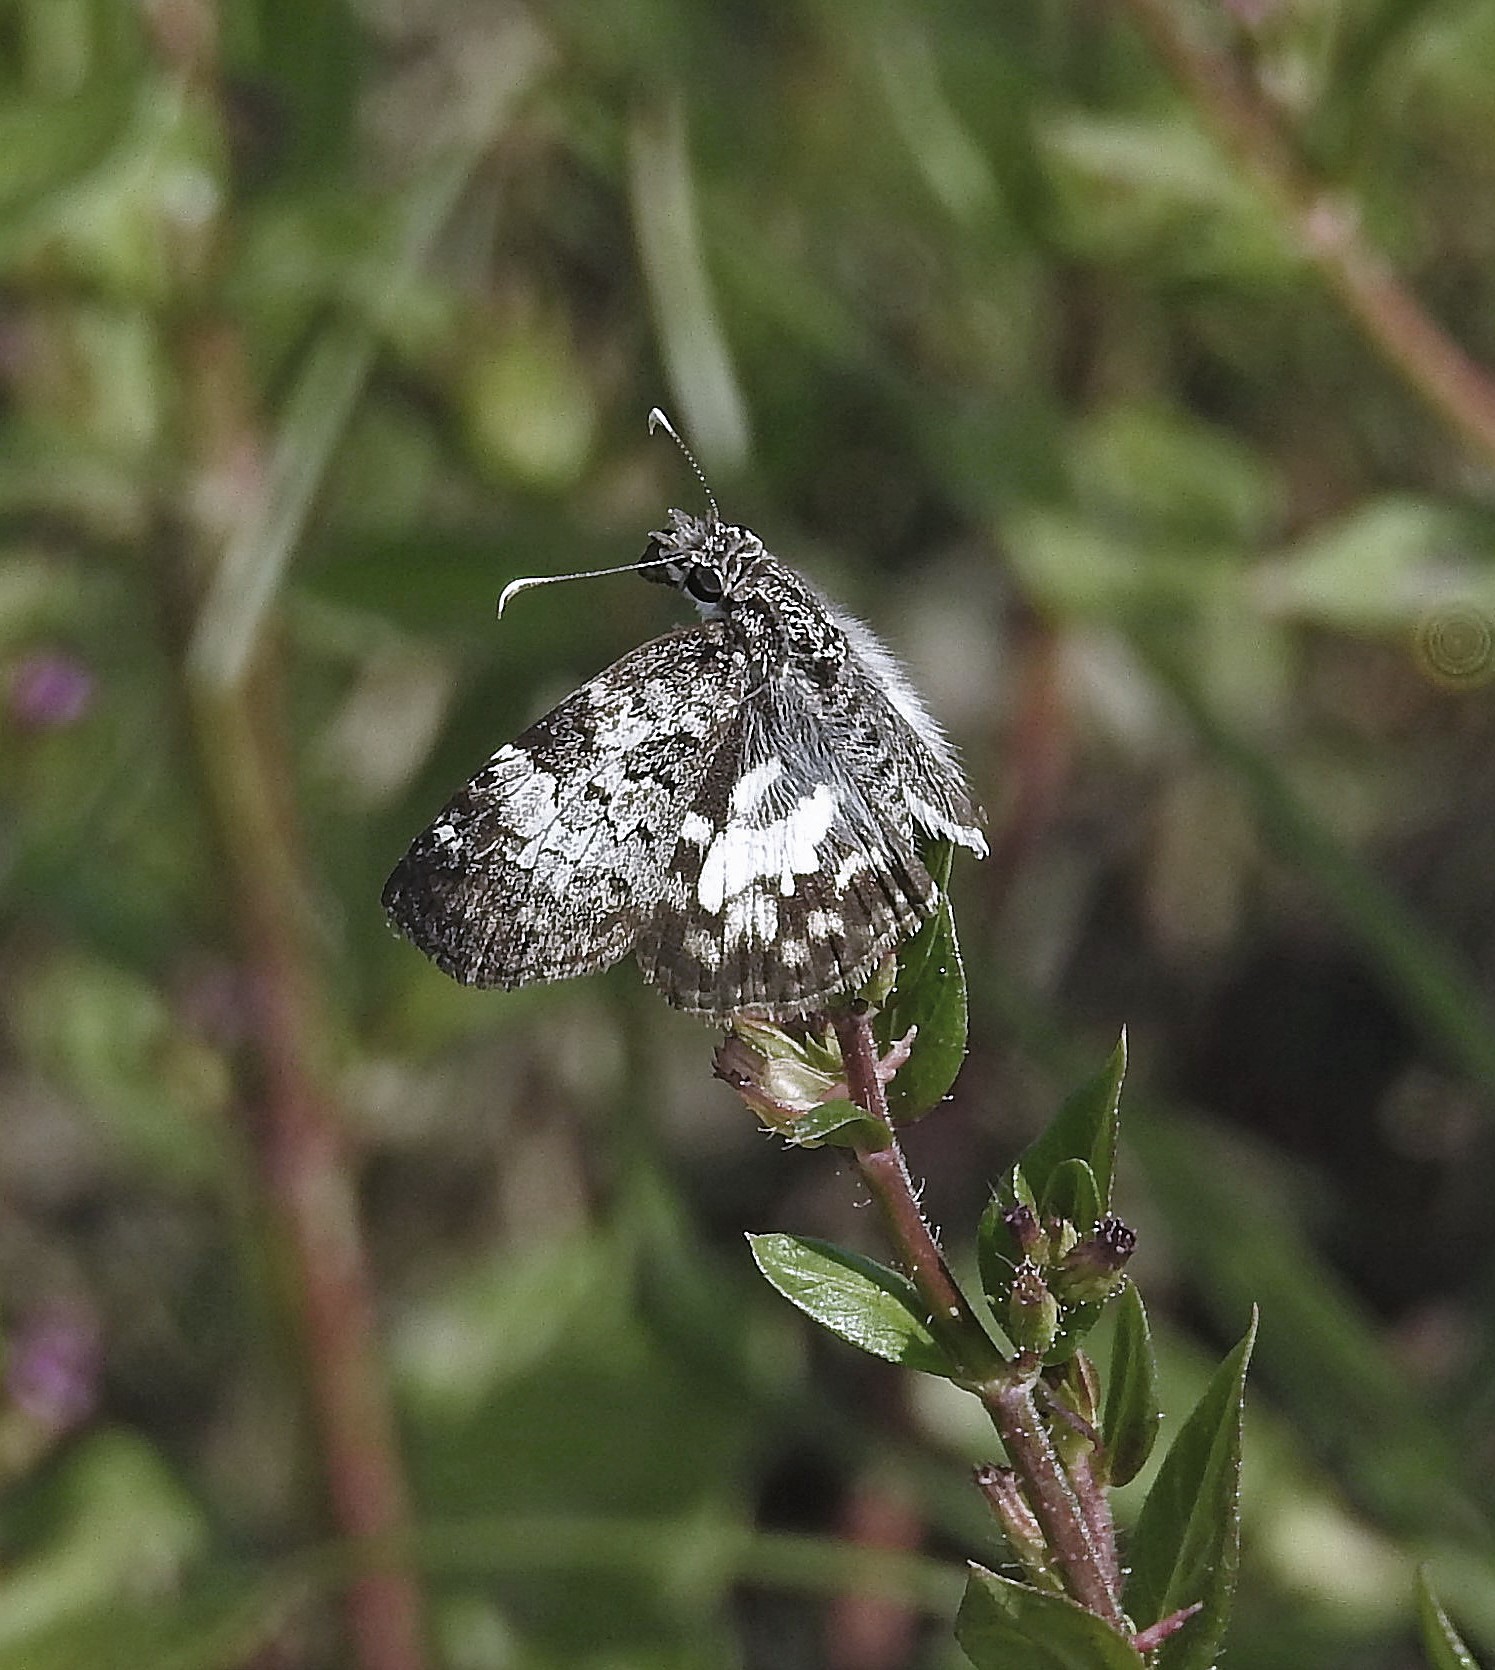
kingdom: Animalia
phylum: Arthropoda
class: Insecta
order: Lepidoptera
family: Hesperiidae
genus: Chiomara
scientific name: Chiomara asychis
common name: White-patterned skipper
